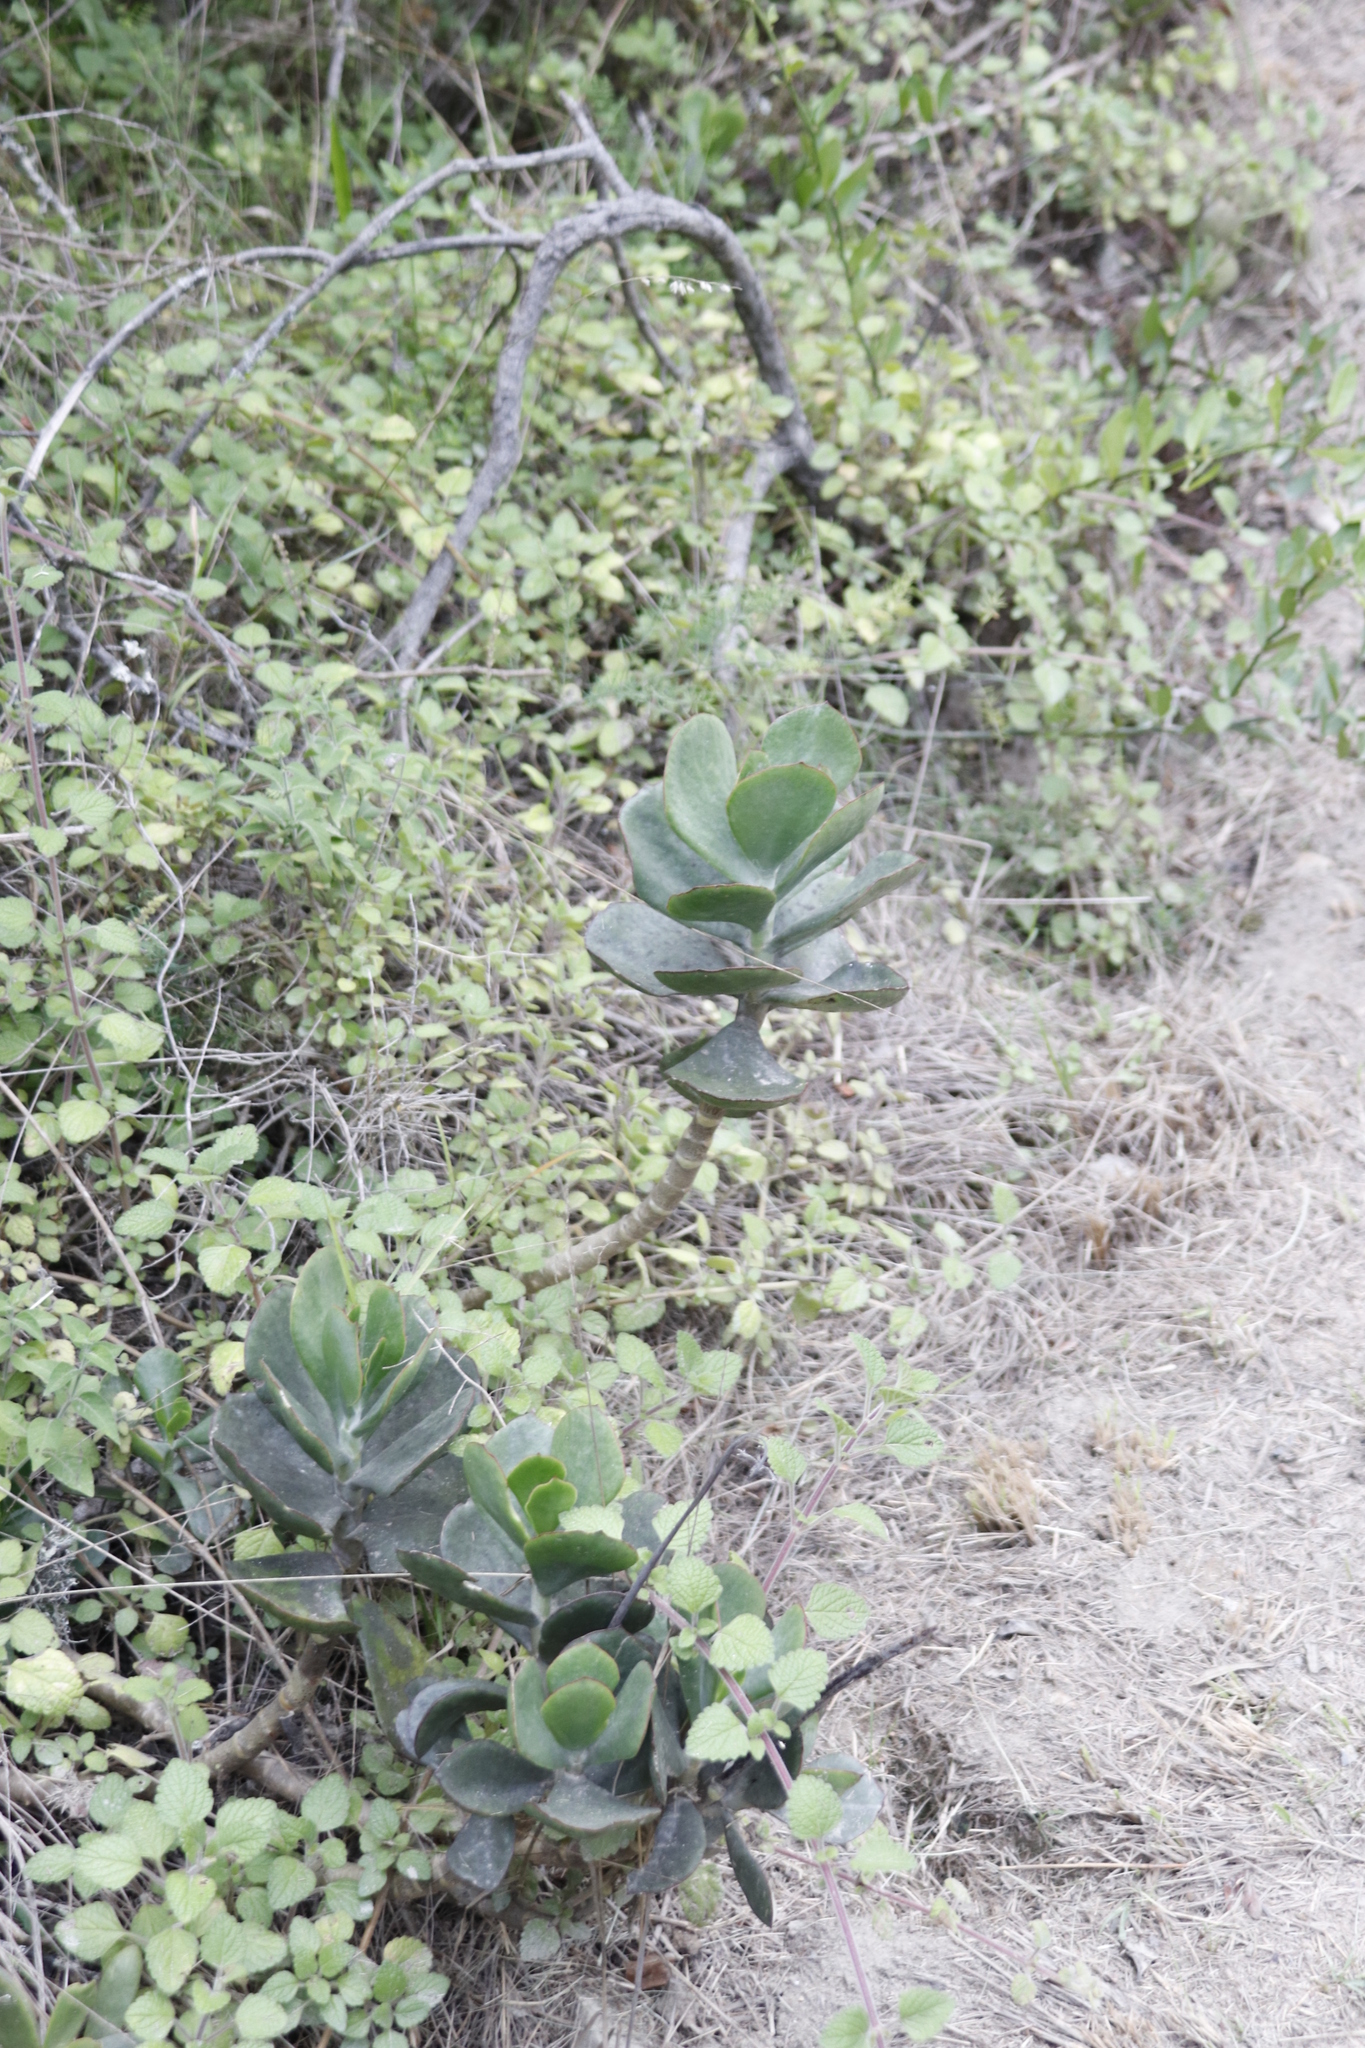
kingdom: Plantae
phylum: Tracheophyta
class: Magnoliopsida
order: Saxifragales
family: Crassulaceae
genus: Cotyledon
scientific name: Cotyledon orbiculata
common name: Pig's ear
